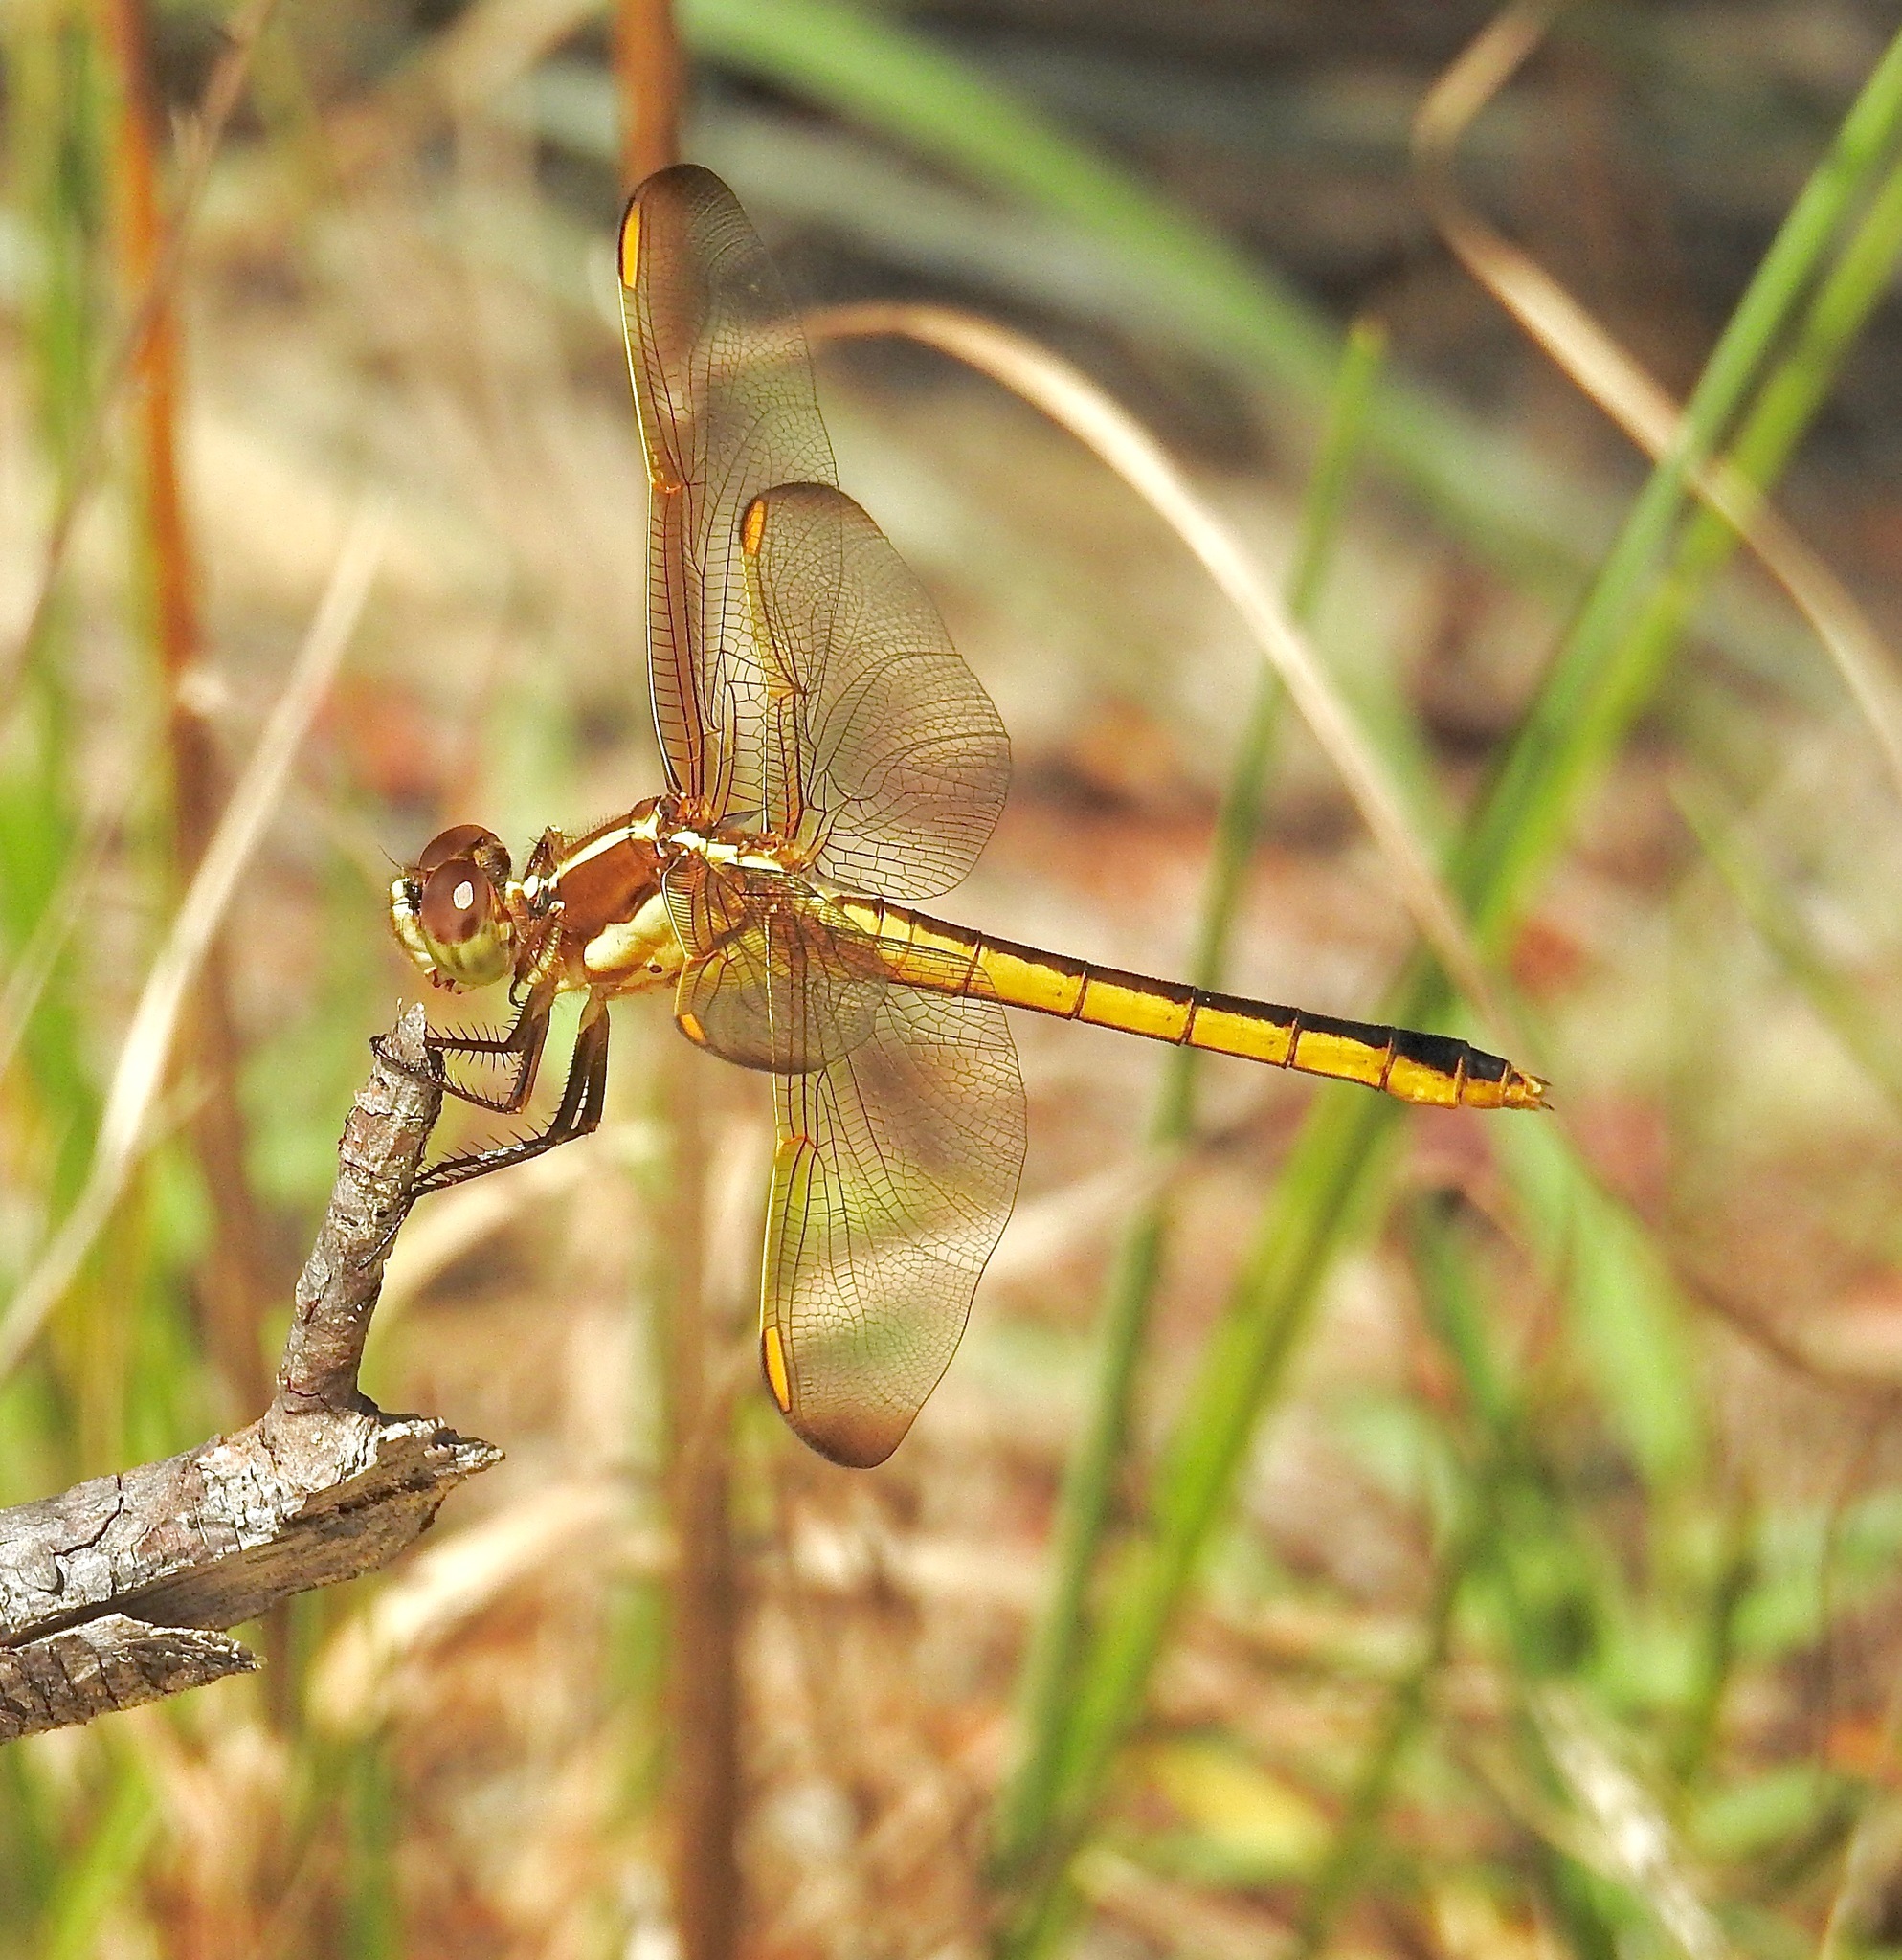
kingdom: Animalia
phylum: Arthropoda
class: Insecta
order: Odonata
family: Libellulidae
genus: Libellula
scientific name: Libellula auripennis
